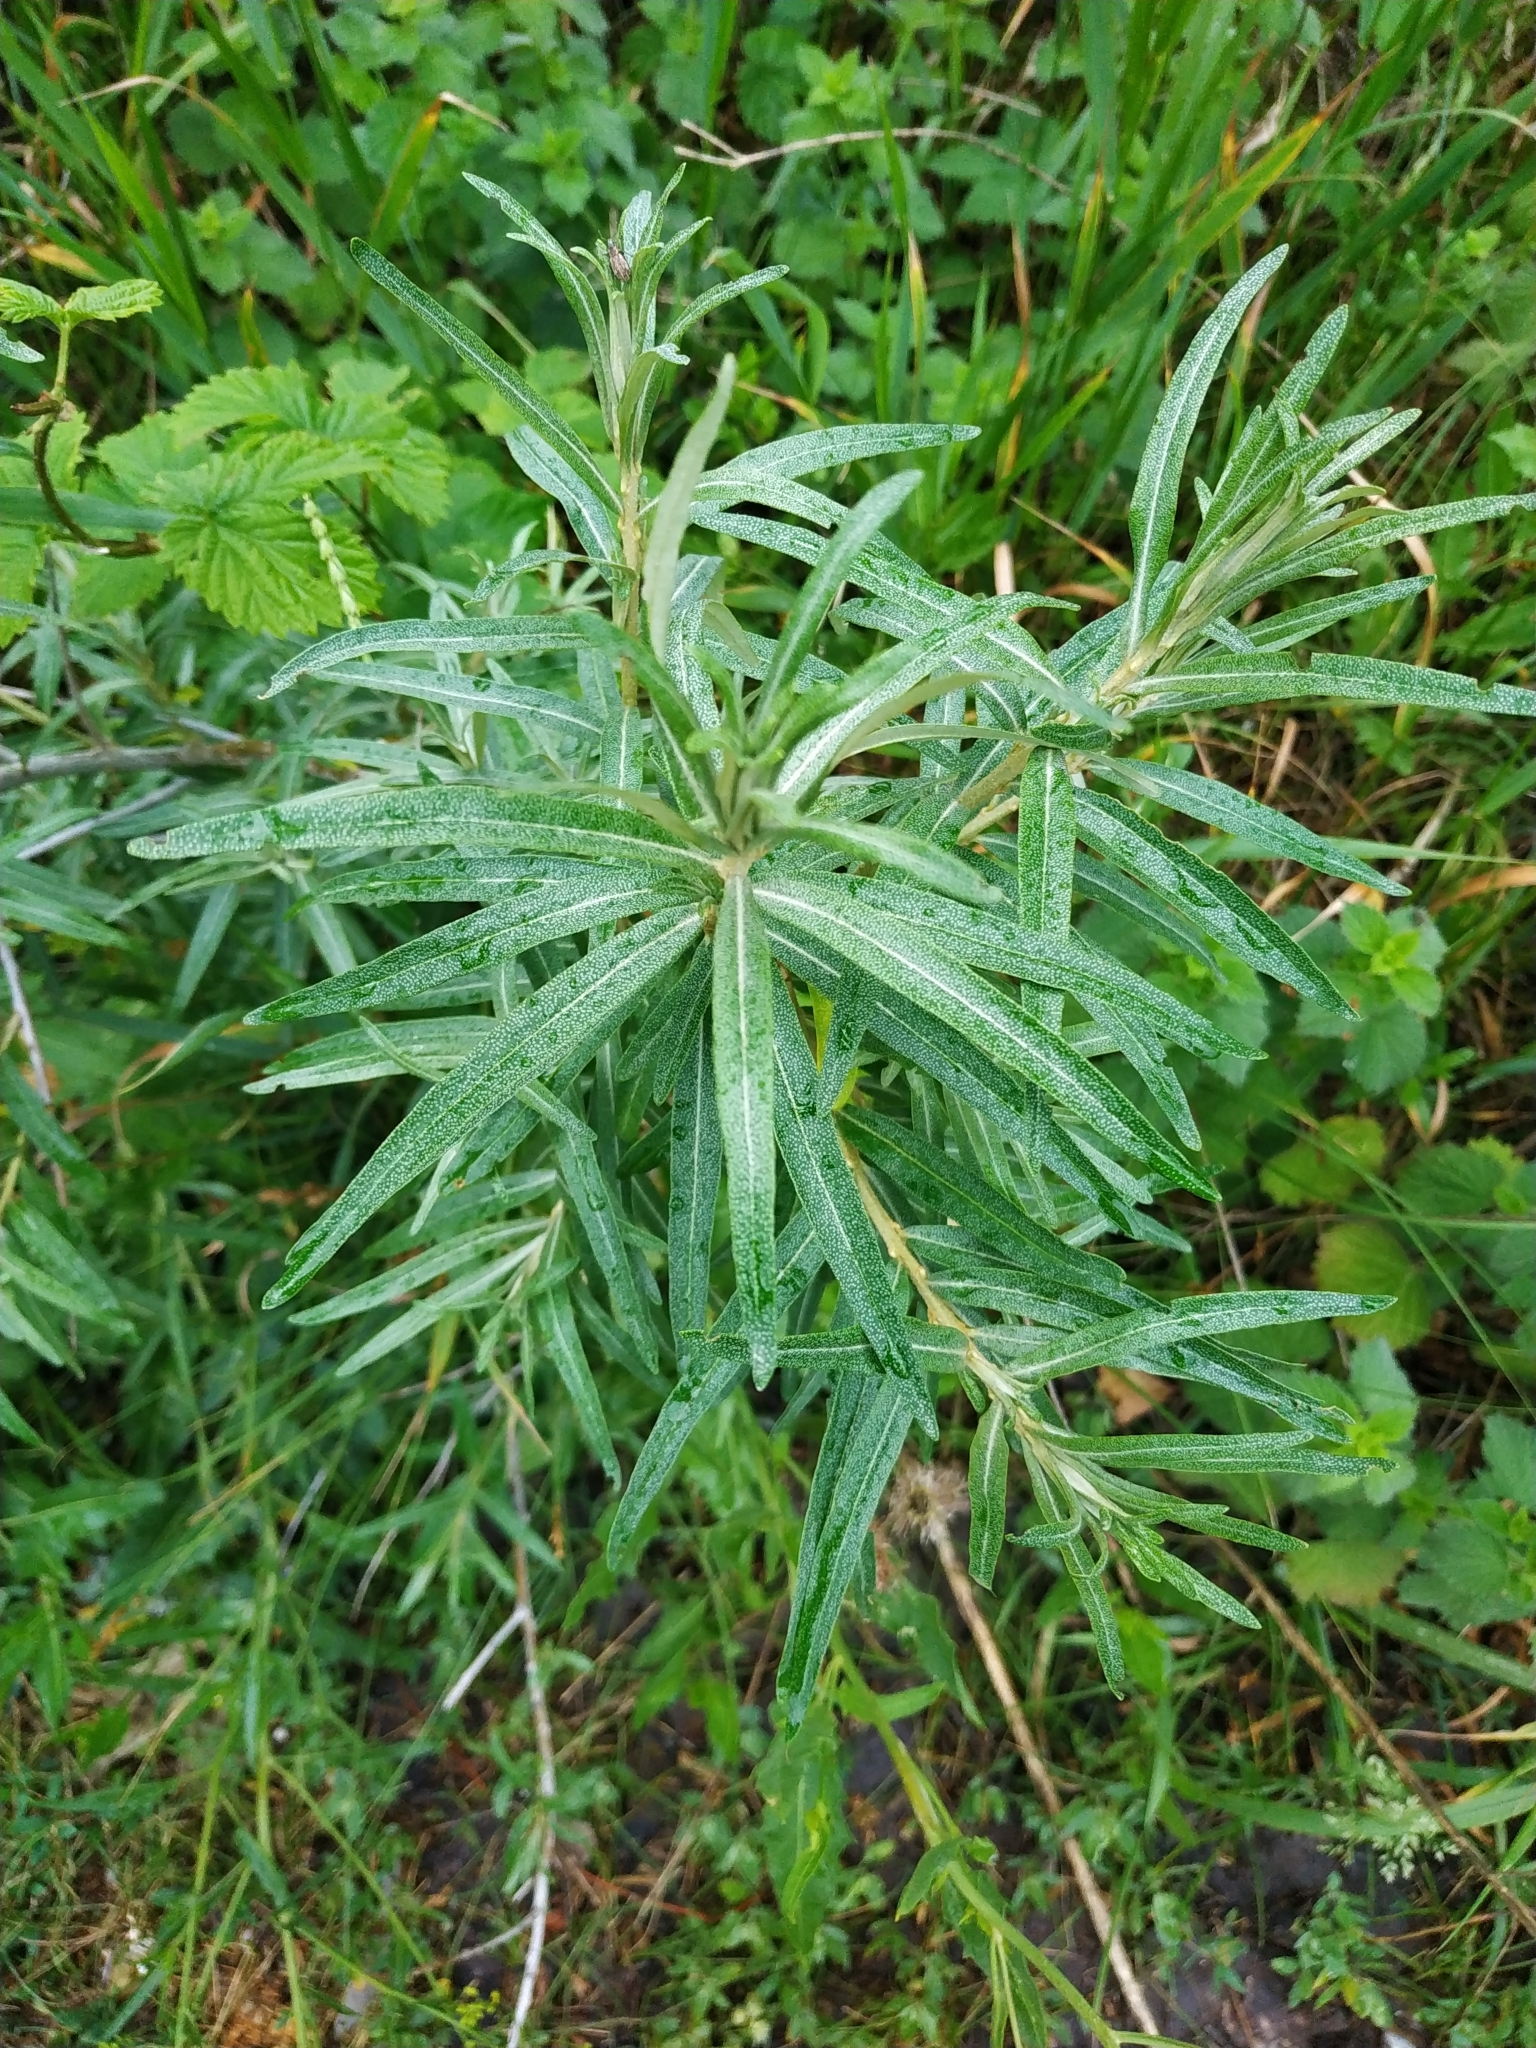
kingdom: Plantae
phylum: Tracheophyta
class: Magnoliopsida
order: Rosales
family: Elaeagnaceae
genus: Hippophae
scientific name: Hippophae rhamnoides
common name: Sea-buckthorn
